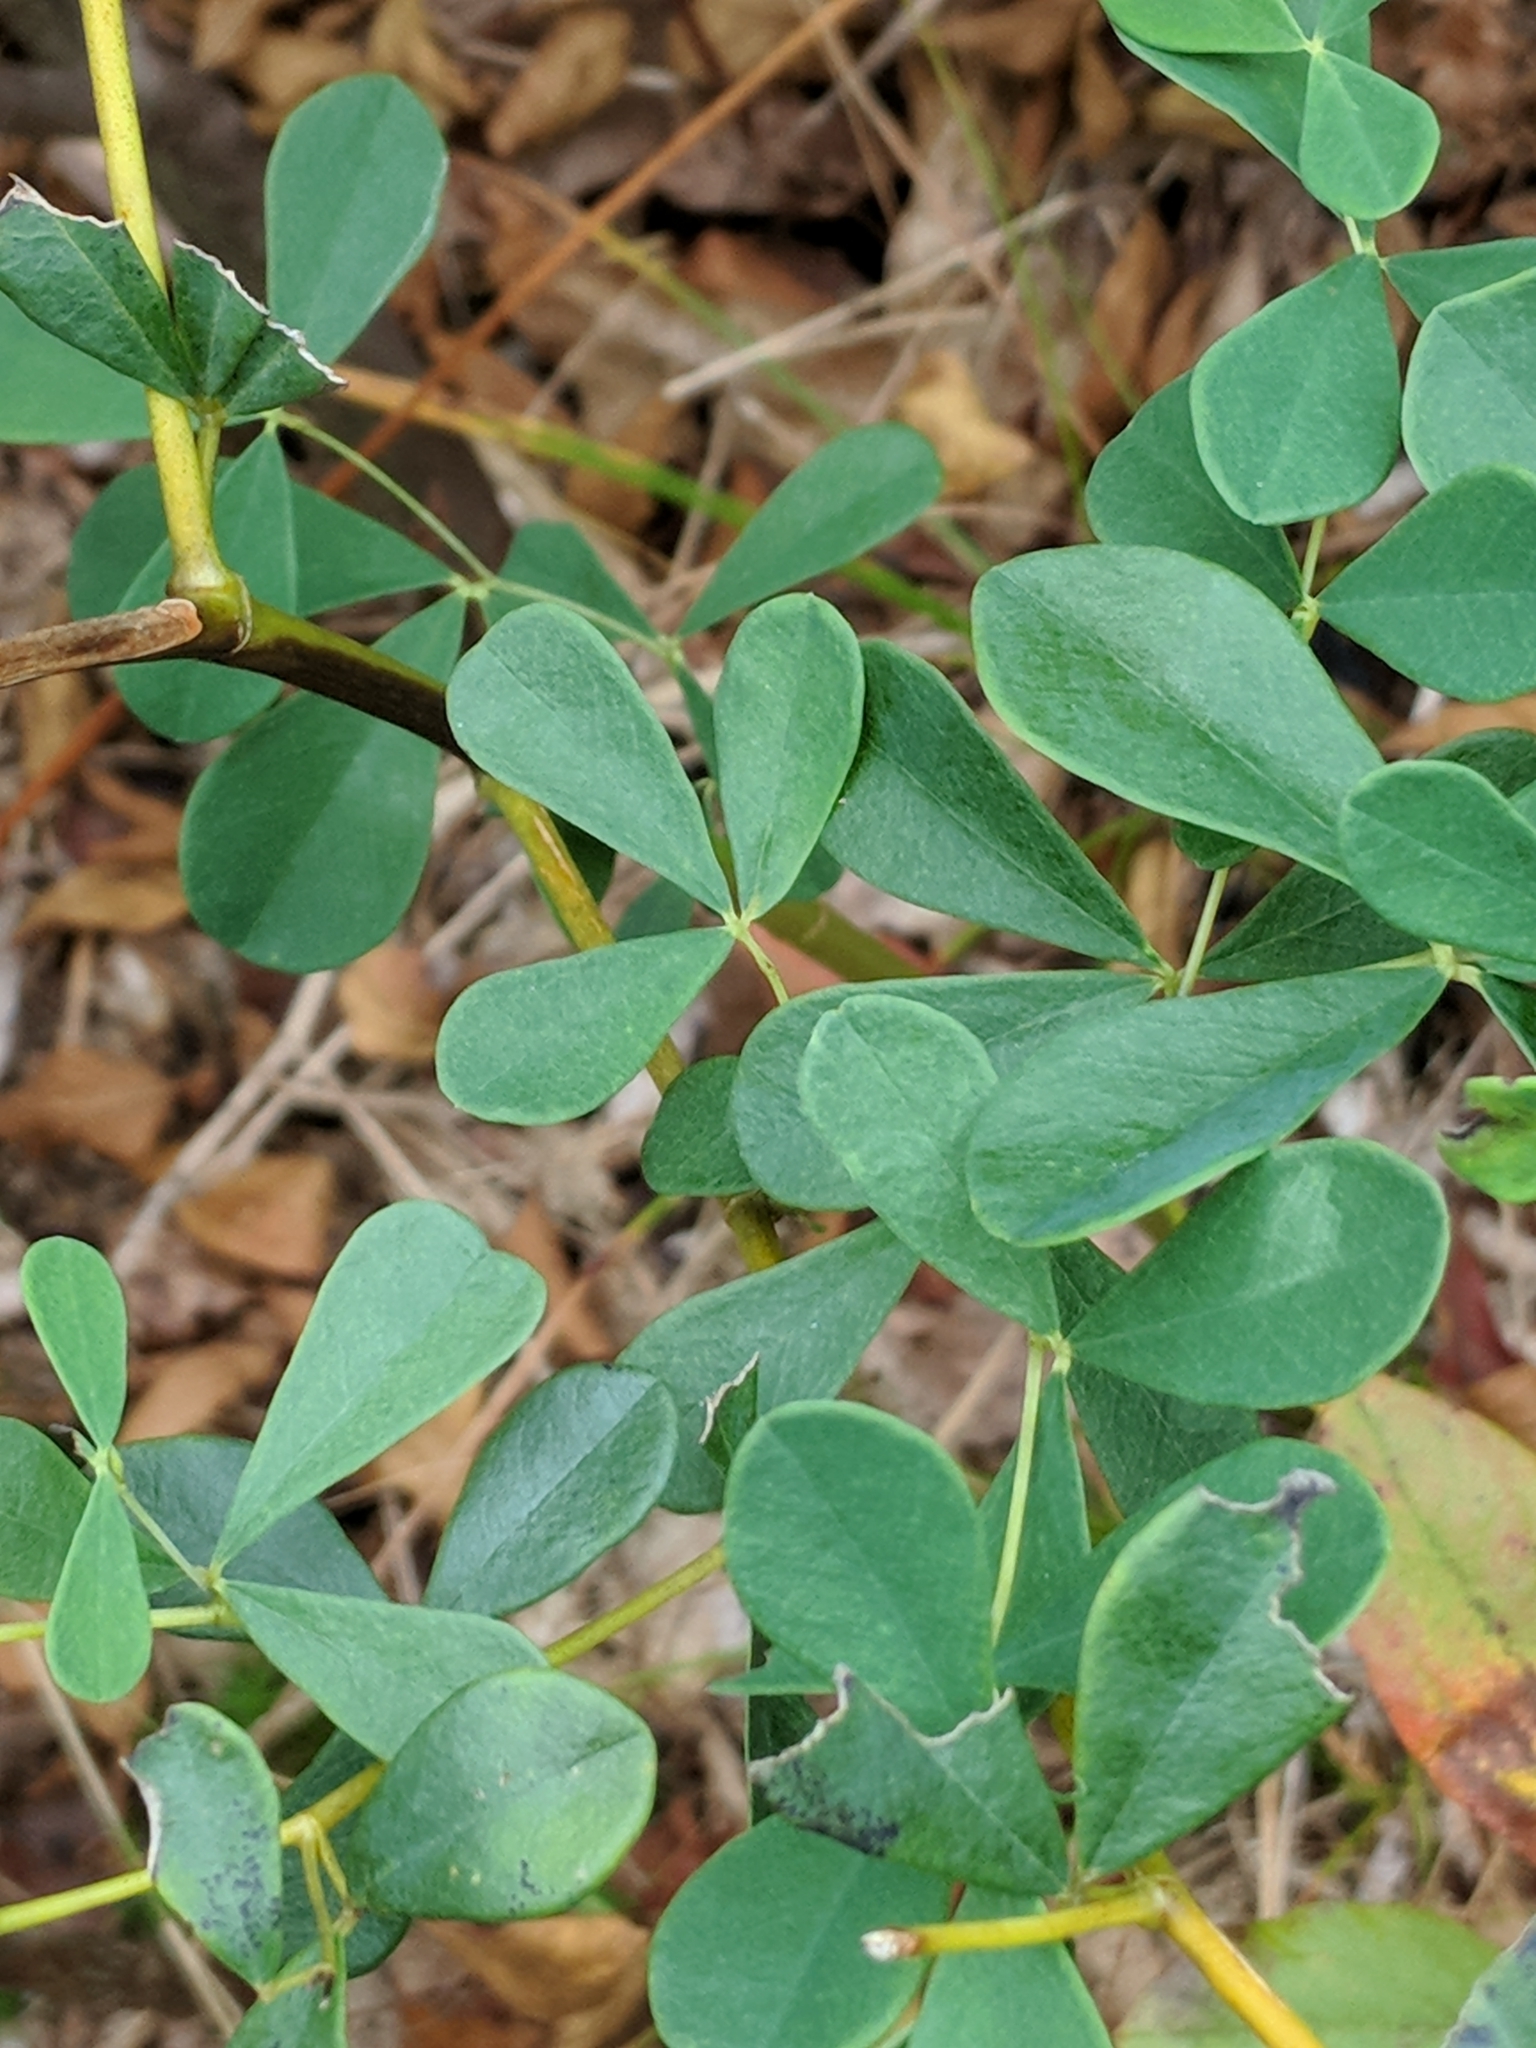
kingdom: Plantae
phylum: Tracheophyta
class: Magnoliopsida
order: Fabales
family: Fabaceae
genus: Baptisia
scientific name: Baptisia tinctoria
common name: Wild indigo
